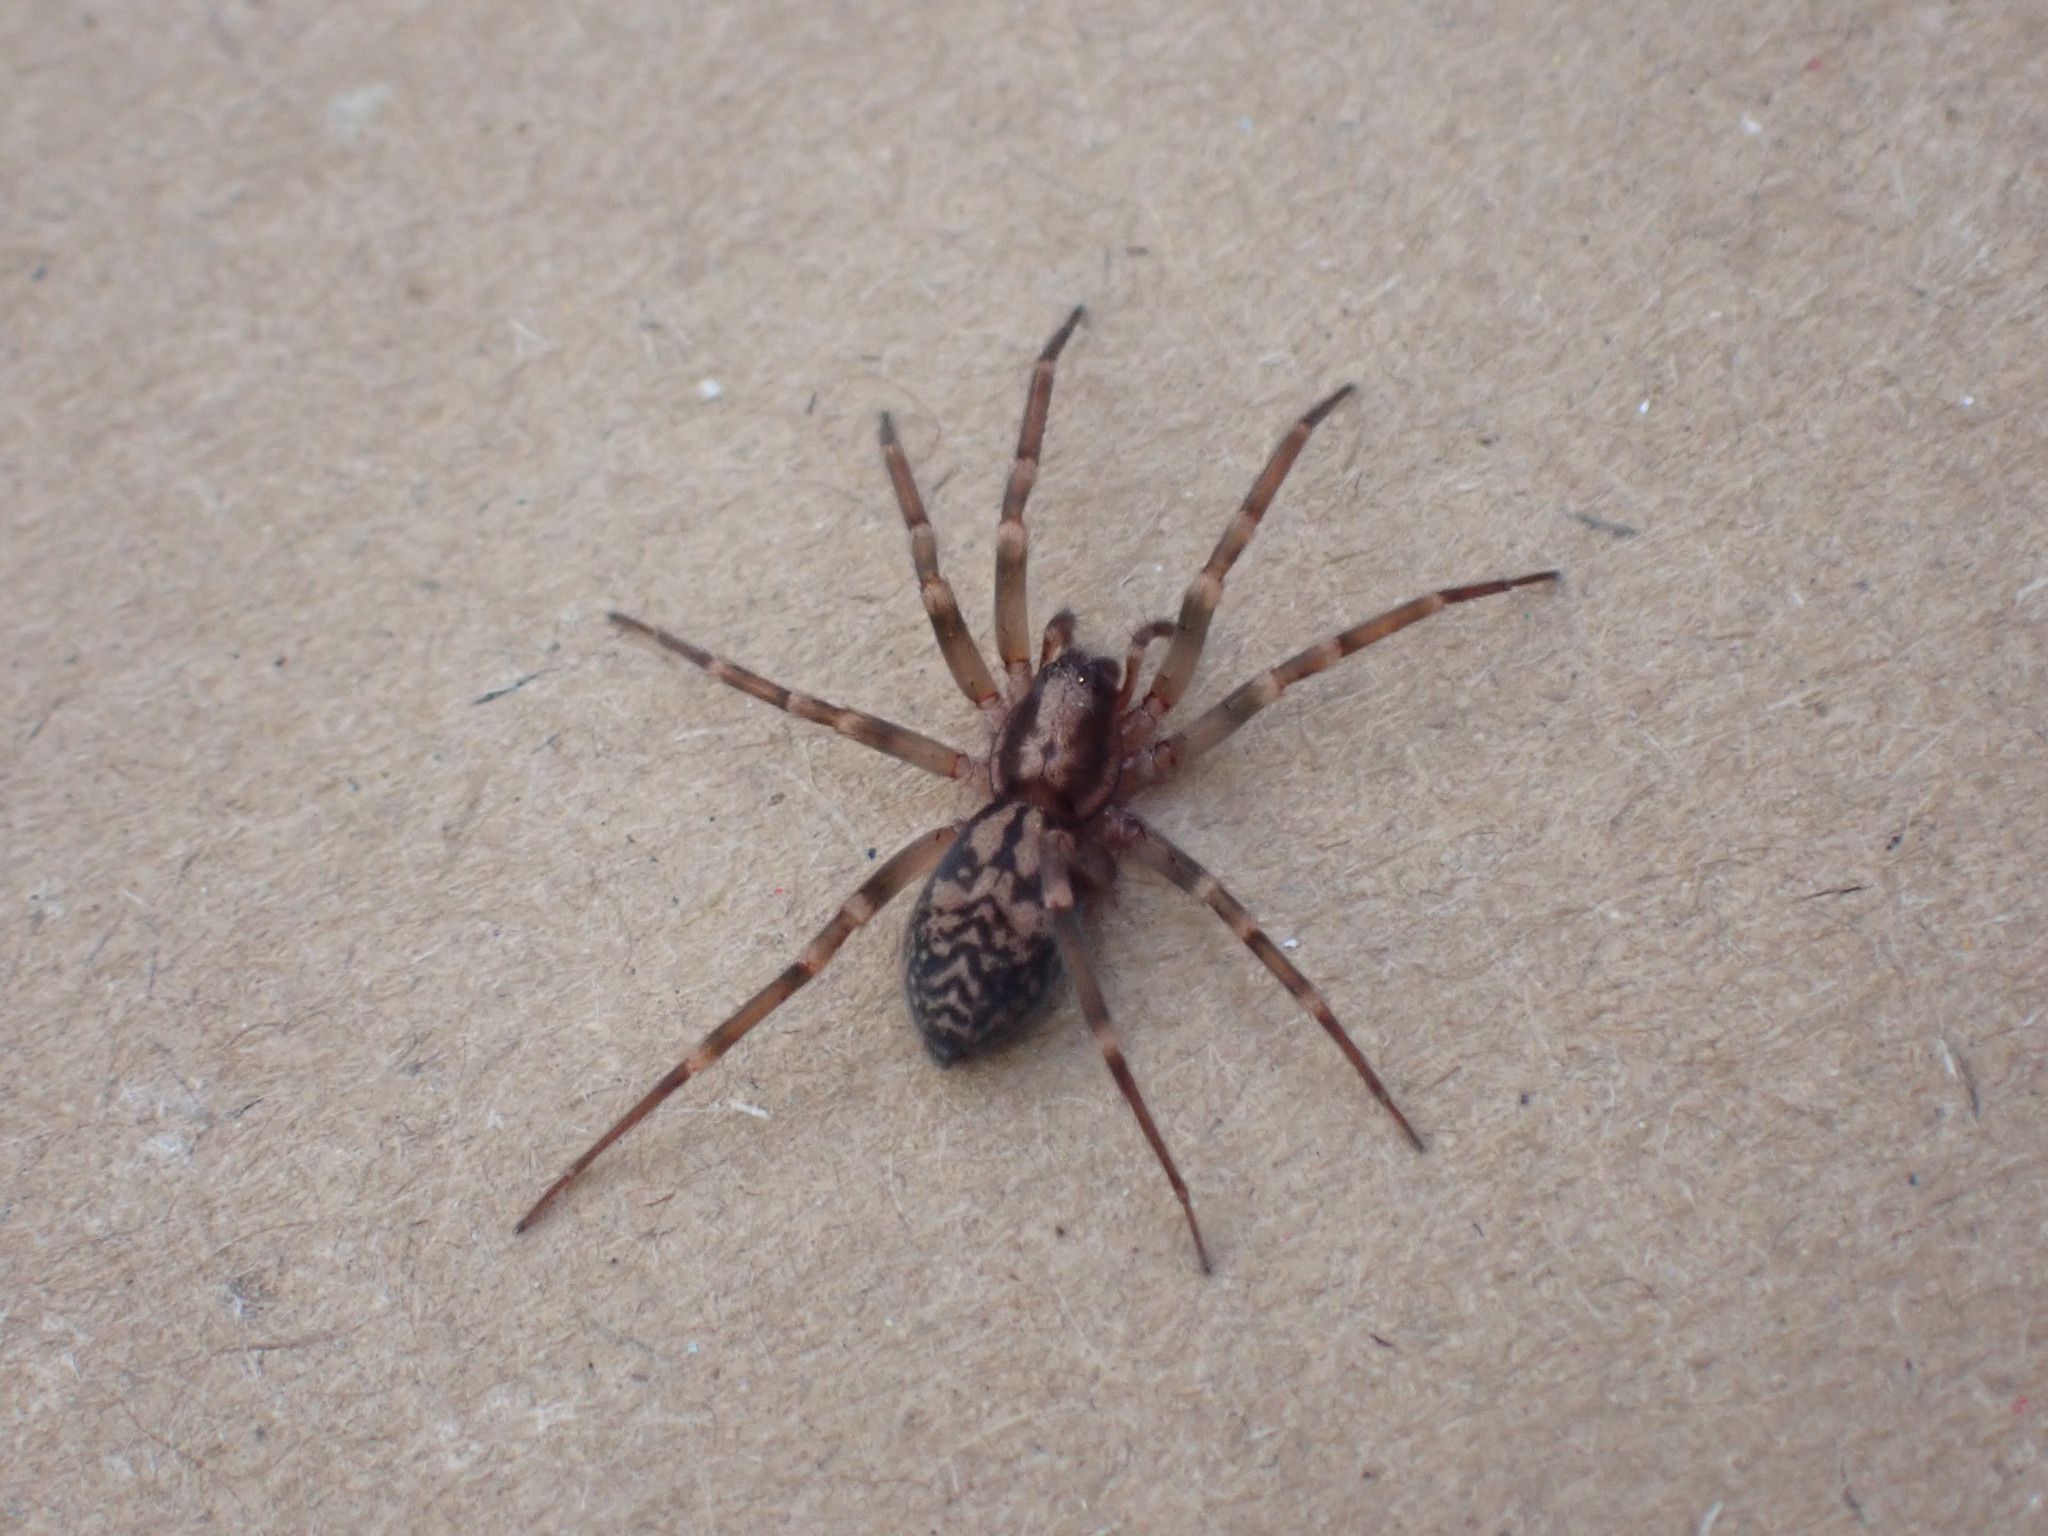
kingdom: Animalia
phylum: Arthropoda
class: Arachnida
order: Araneae
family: Liocranidae
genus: Liocranum
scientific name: Liocranum rupicola
